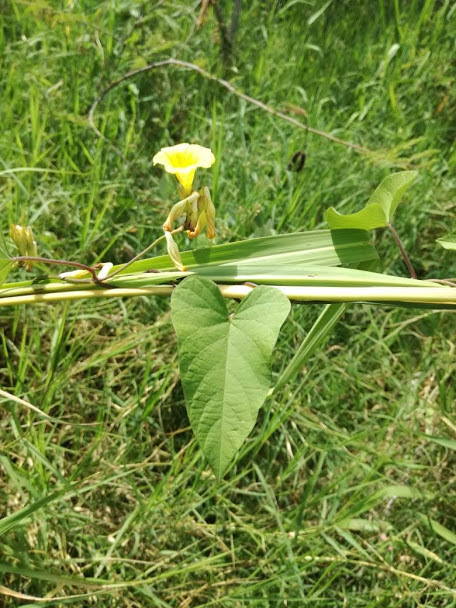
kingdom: Plantae
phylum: Tracheophyta
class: Magnoliopsida
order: Solanales
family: Convolvulaceae
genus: Camonea
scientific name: Camonea umbellata
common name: Hogvine
